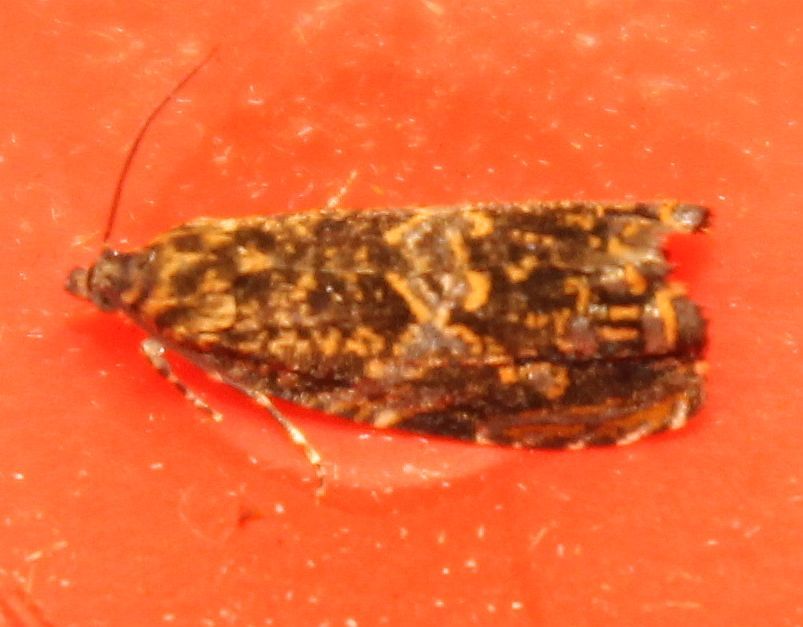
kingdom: Animalia
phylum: Arthropoda
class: Insecta
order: Lepidoptera
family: Tortricidae
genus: Enarmonia
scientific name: Enarmonia formosana
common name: Cherry bark tortrix
